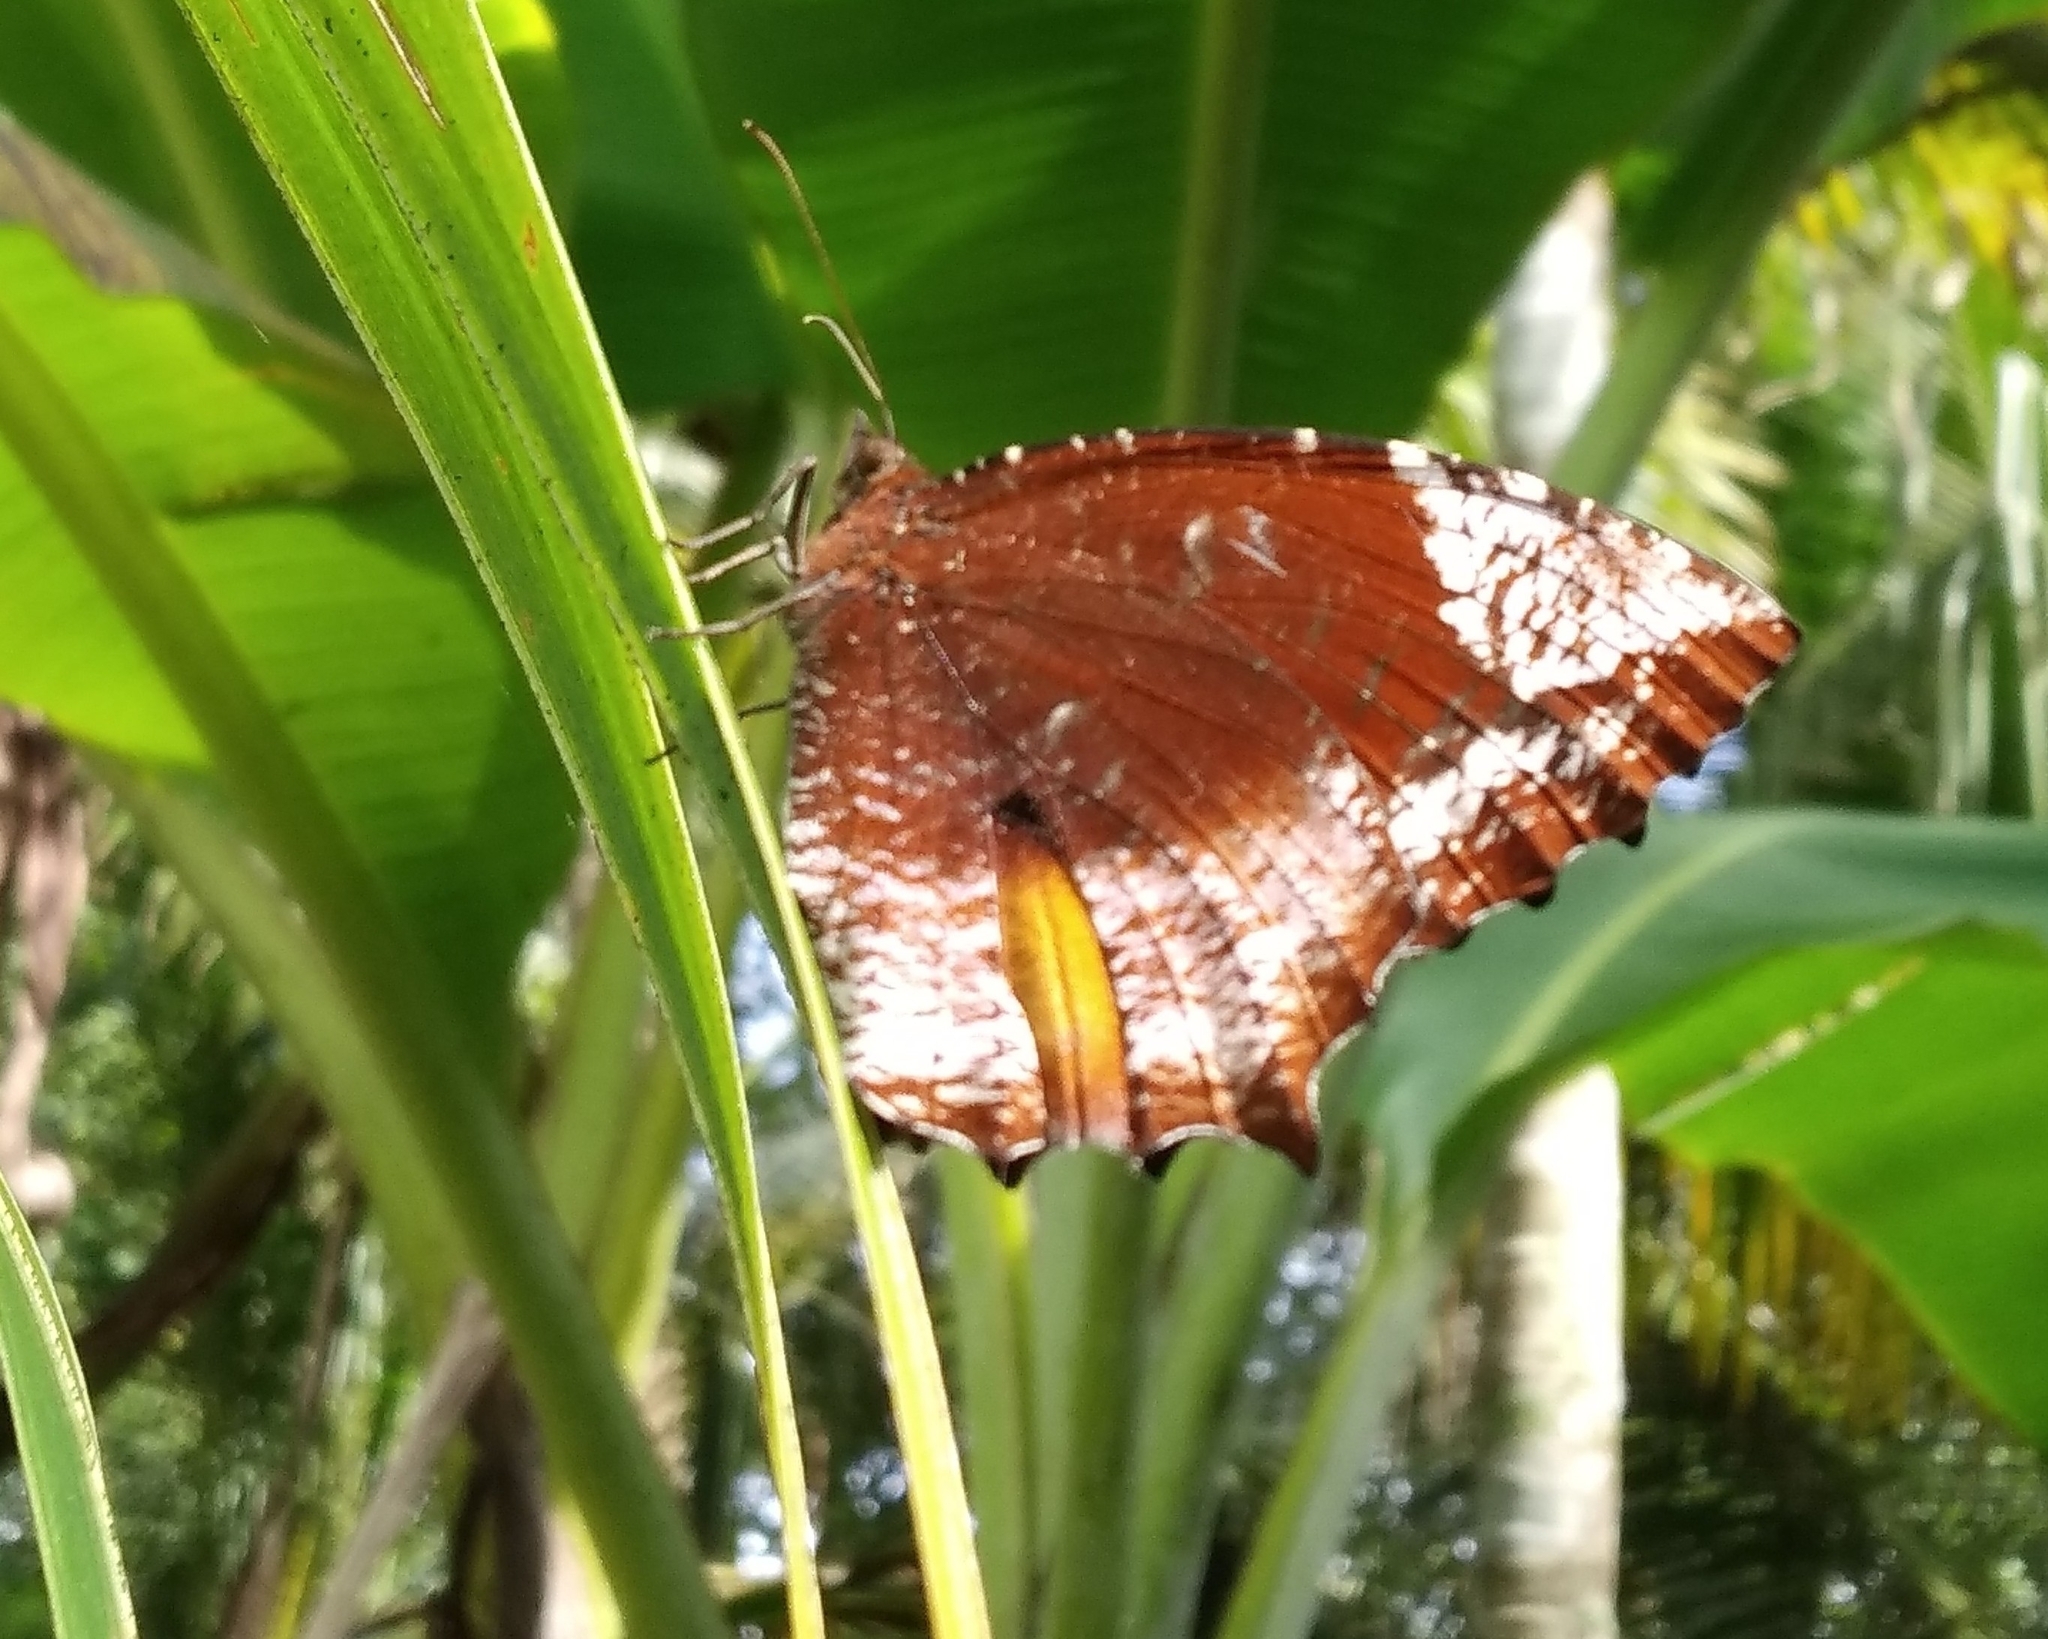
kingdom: Animalia
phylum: Arthropoda
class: Insecta
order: Lepidoptera
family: Nymphalidae
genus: Elymnias
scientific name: Elymnias caudata
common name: Tailed palmfly
